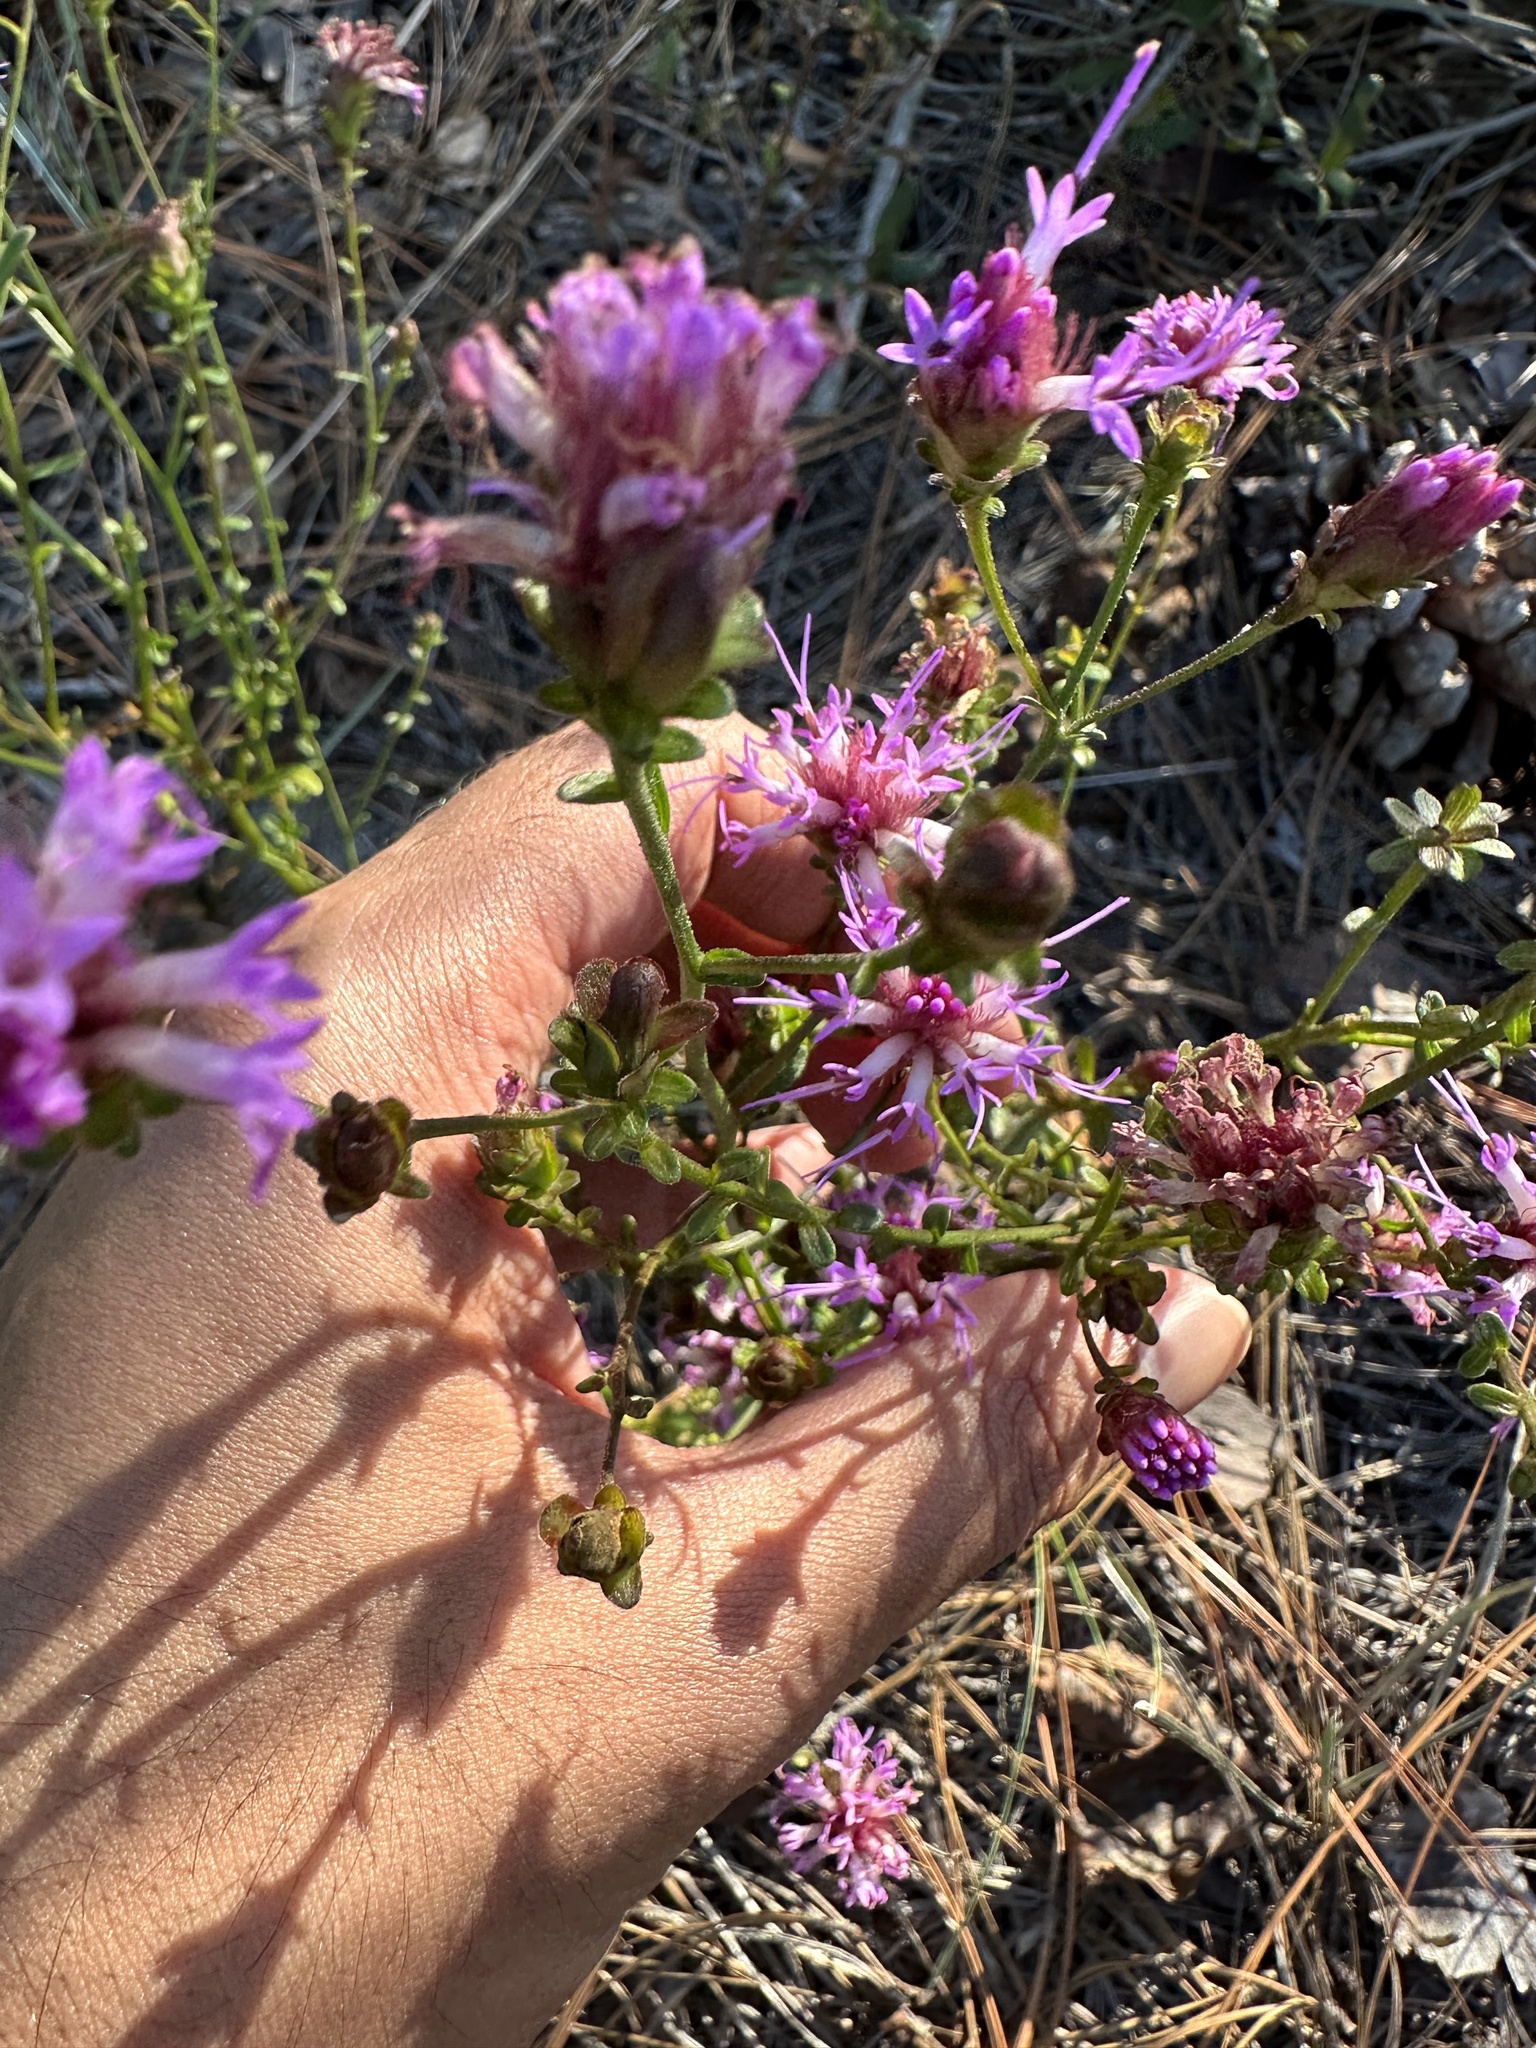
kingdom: Plantae
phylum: Tracheophyta
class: Magnoliopsida
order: Asterales
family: Asteraceae
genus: Carphephorus
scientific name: Carphephorus bellidifolius
